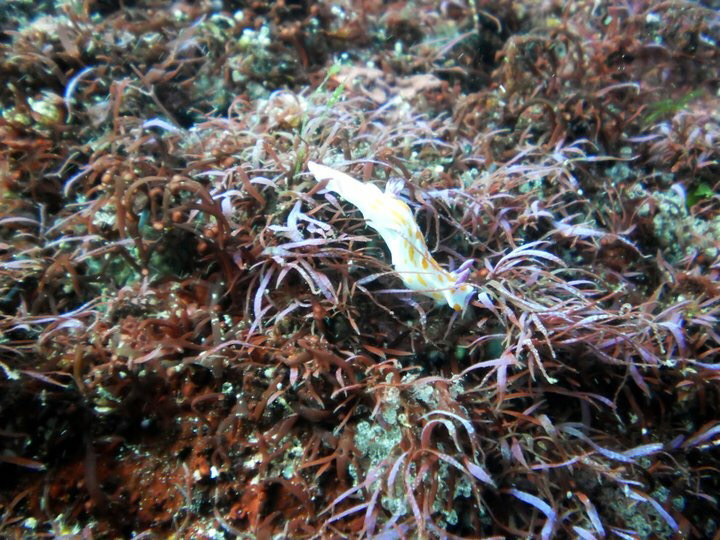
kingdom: Animalia
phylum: Mollusca
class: Gastropoda
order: Nudibranchia
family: Chromodorididae
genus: Ceratosoma
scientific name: Ceratosoma amoenum
